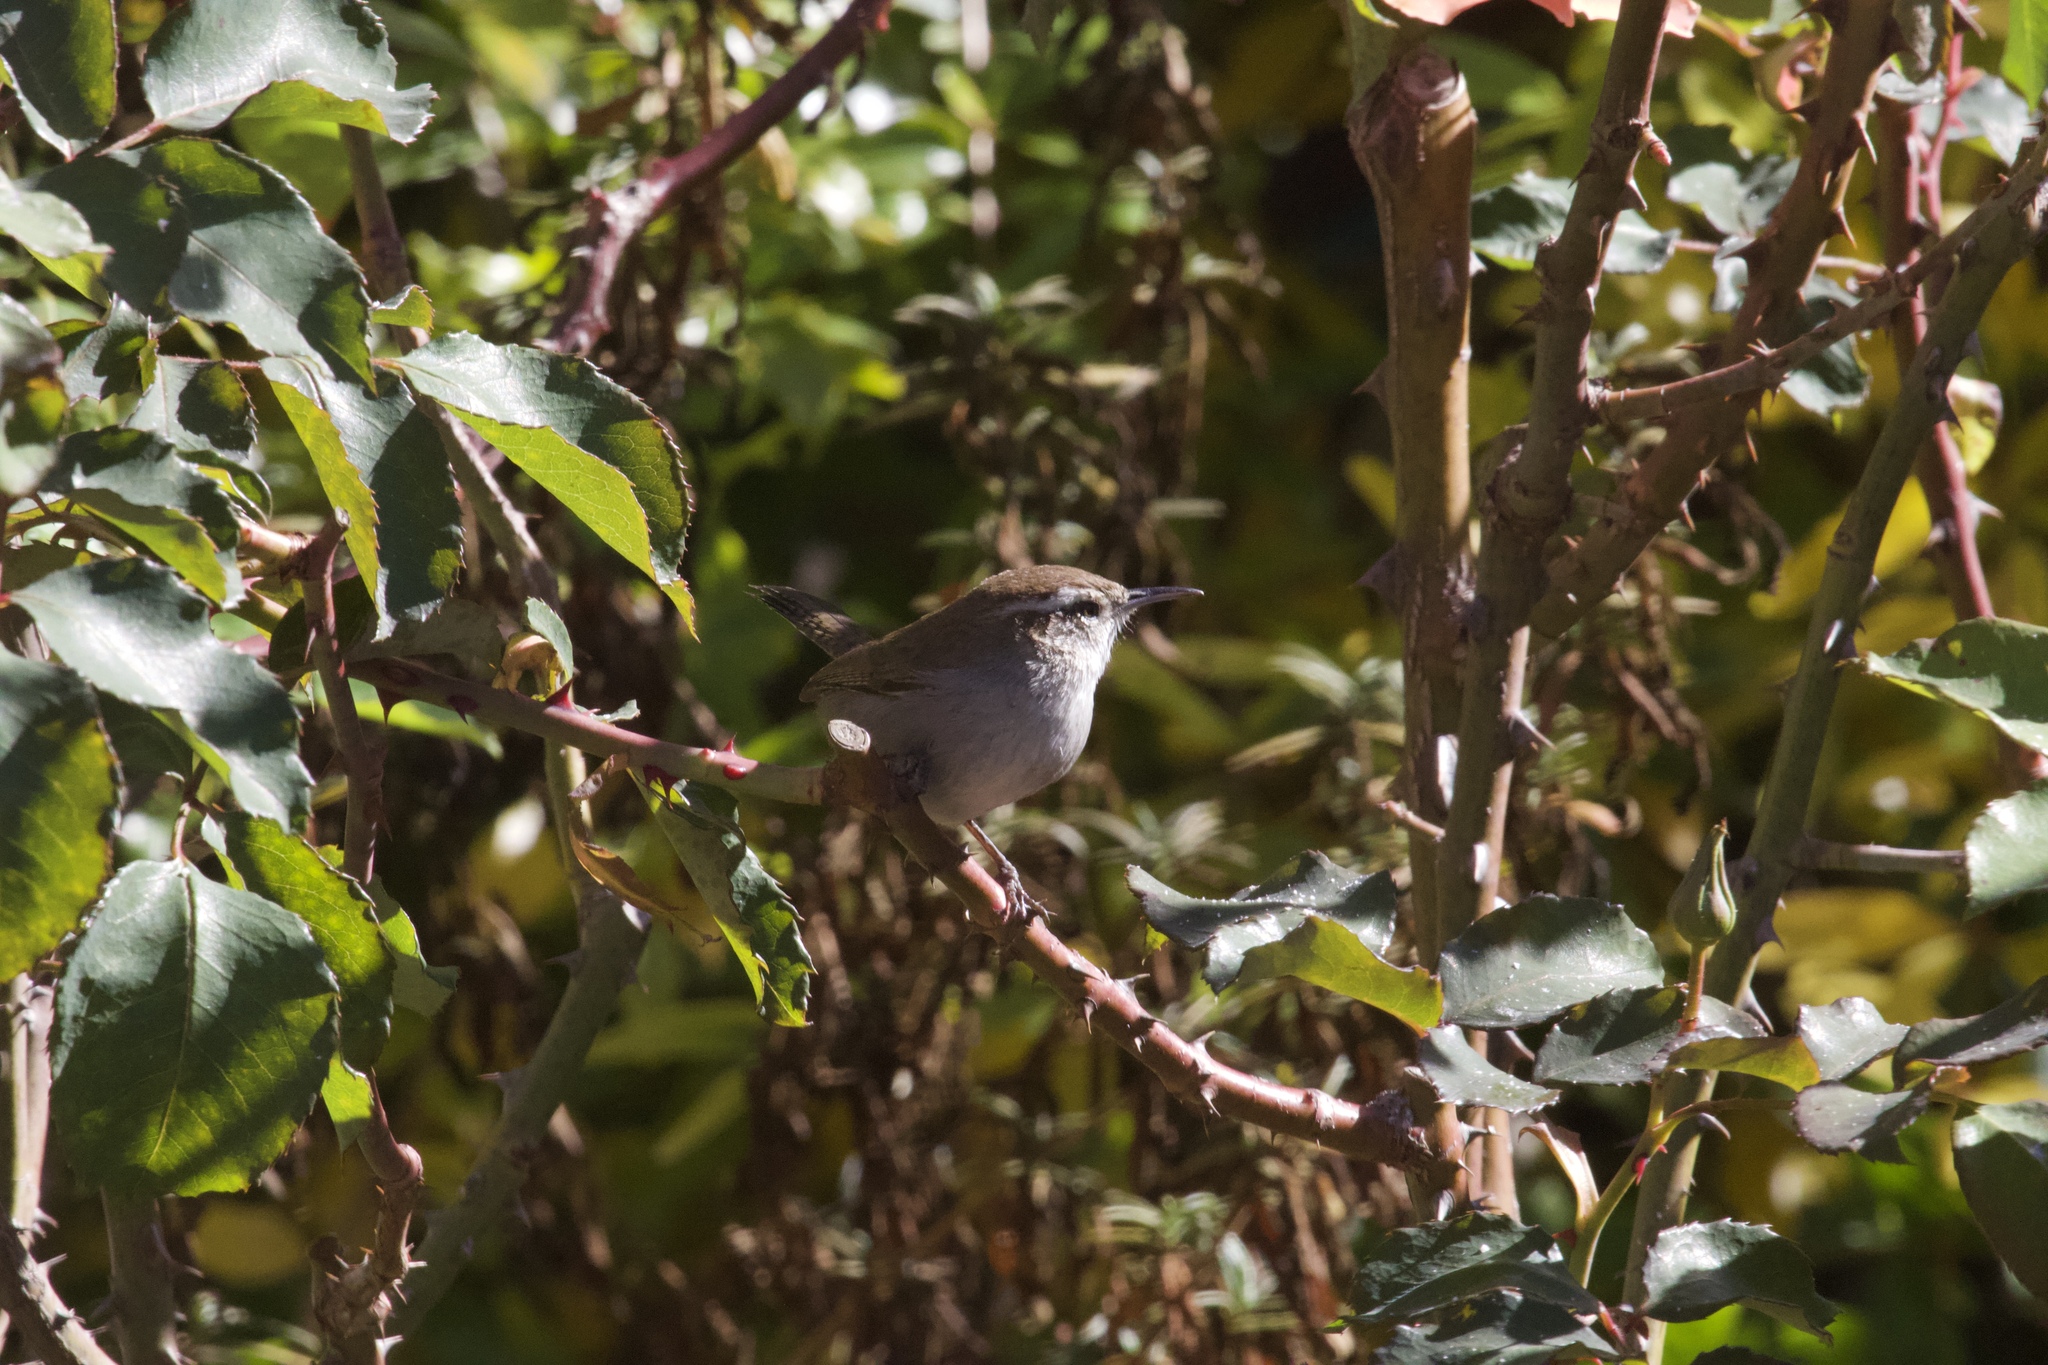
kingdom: Animalia
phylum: Chordata
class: Aves
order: Passeriformes
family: Troglodytidae
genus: Thryomanes
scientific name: Thryomanes bewickii
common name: Bewick's wren
